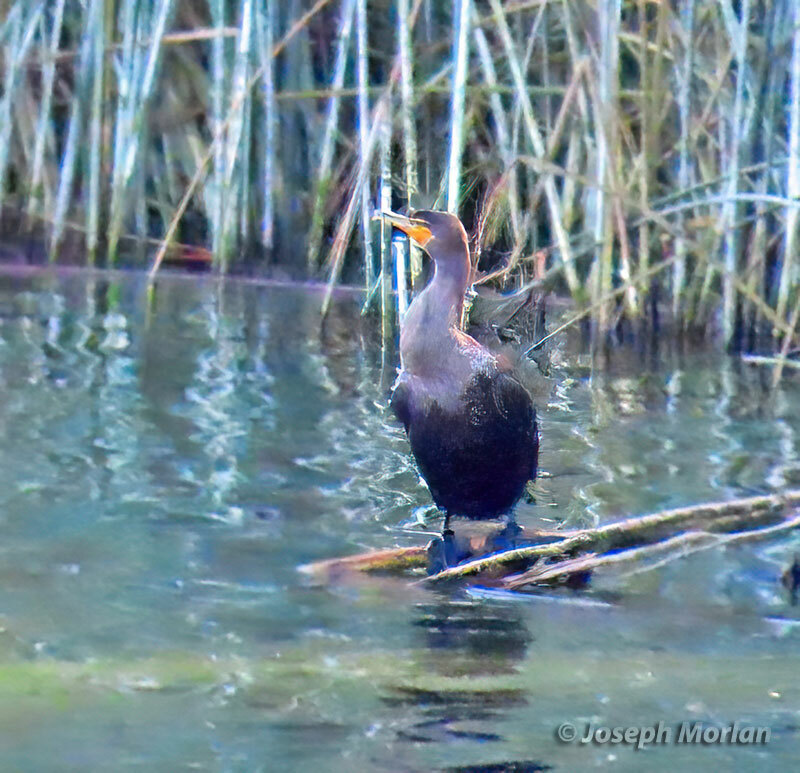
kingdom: Animalia
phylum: Chordata
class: Aves
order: Suliformes
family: Phalacrocoracidae
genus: Phalacrocorax
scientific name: Phalacrocorax auritus
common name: Double-crested cormorant
